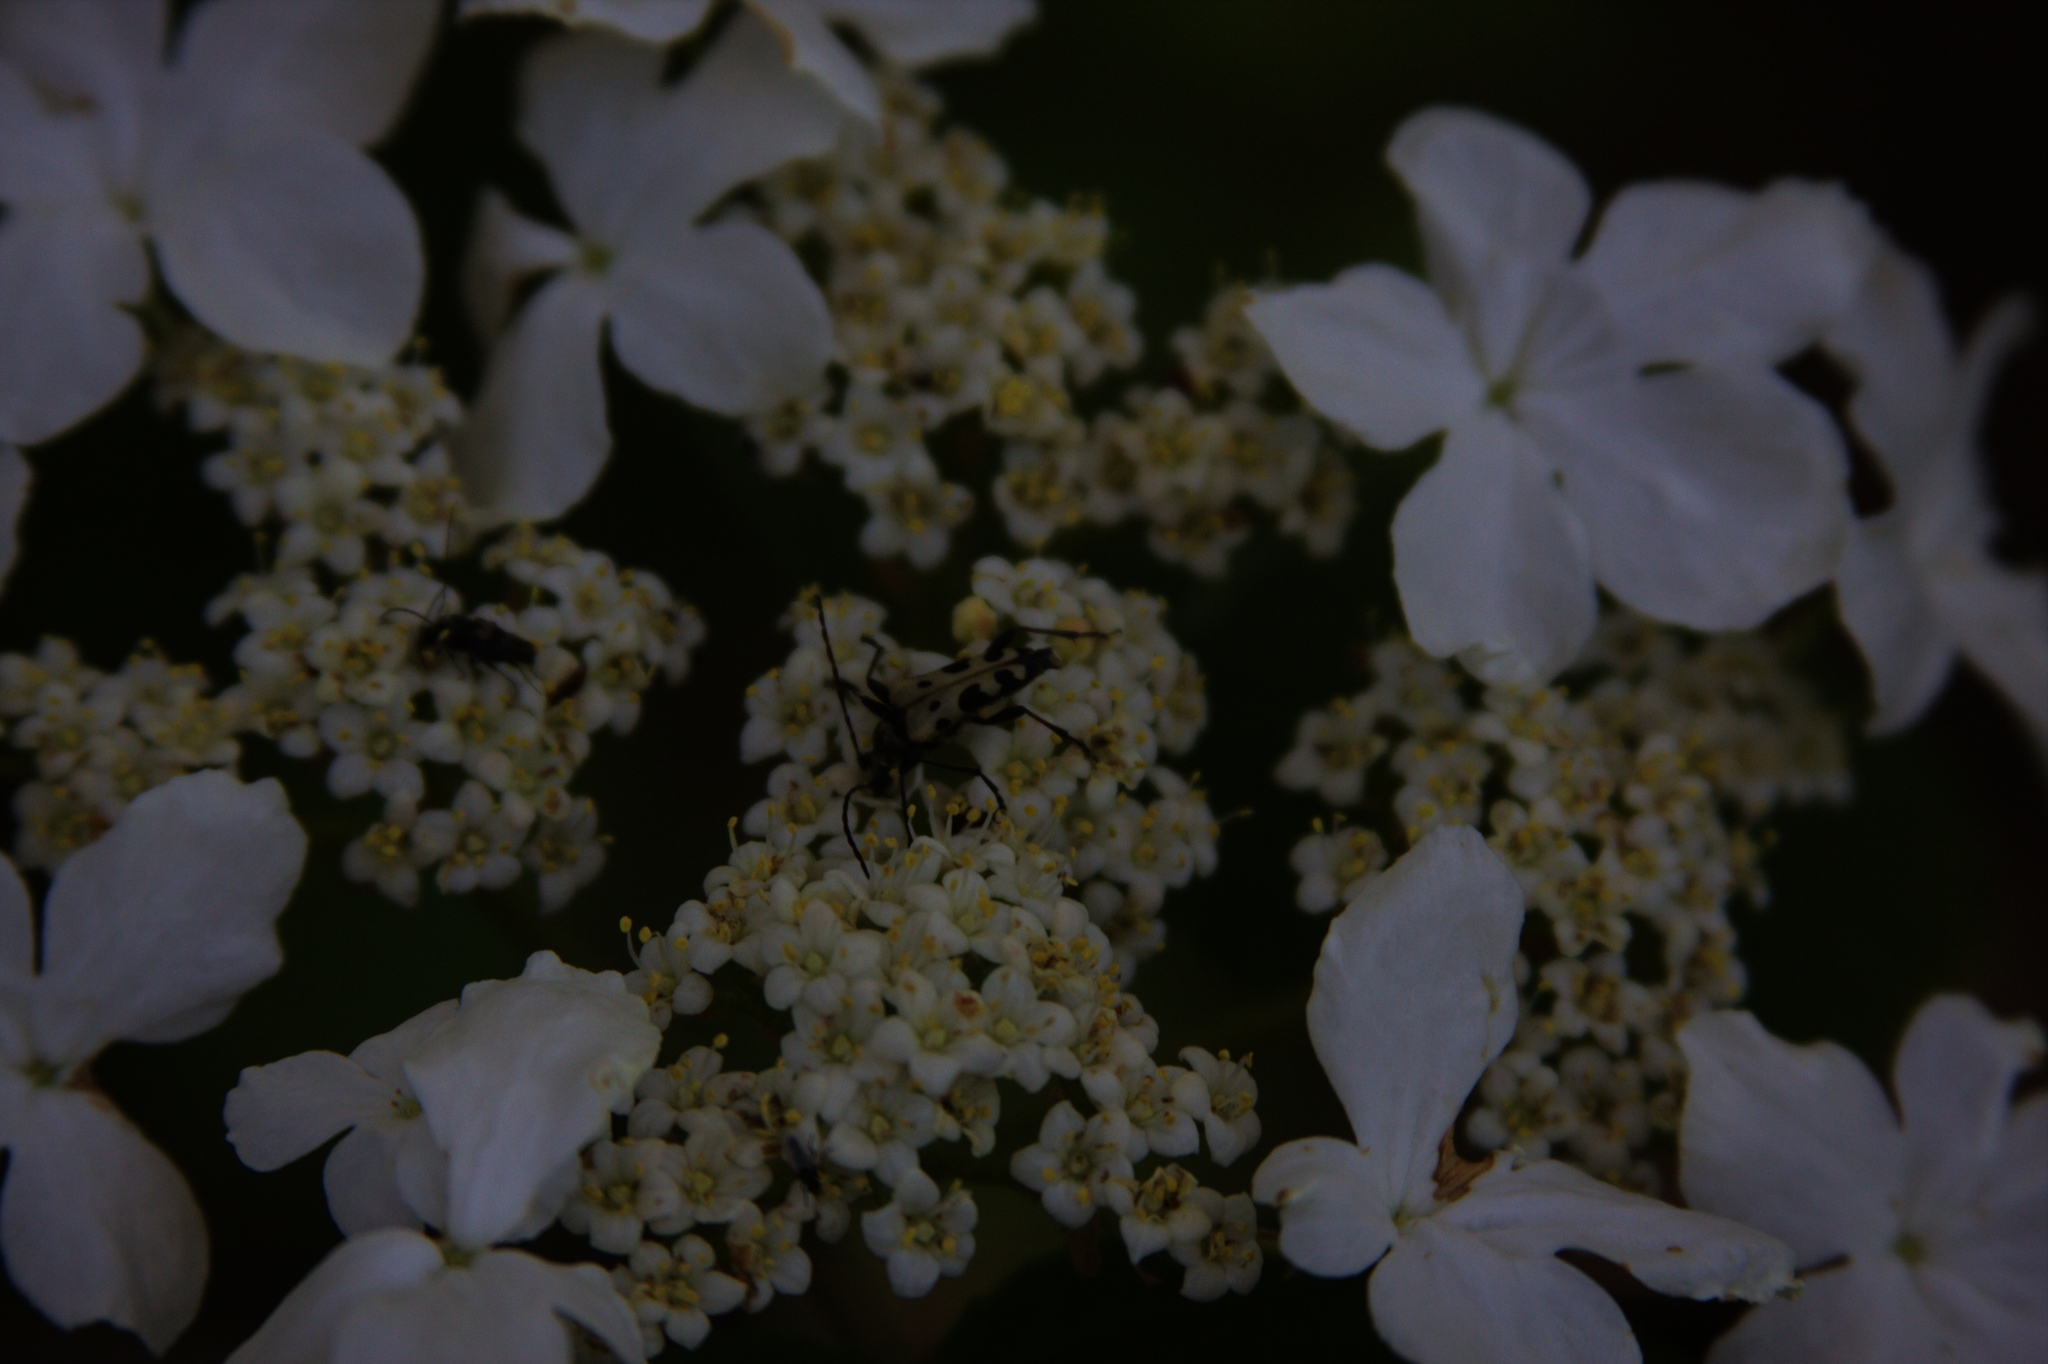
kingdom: Plantae
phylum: Tracheophyta
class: Magnoliopsida
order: Dipsacales
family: Viburnaceae
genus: Viburnum
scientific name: Viburnum lantanoides
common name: Hobblebush
